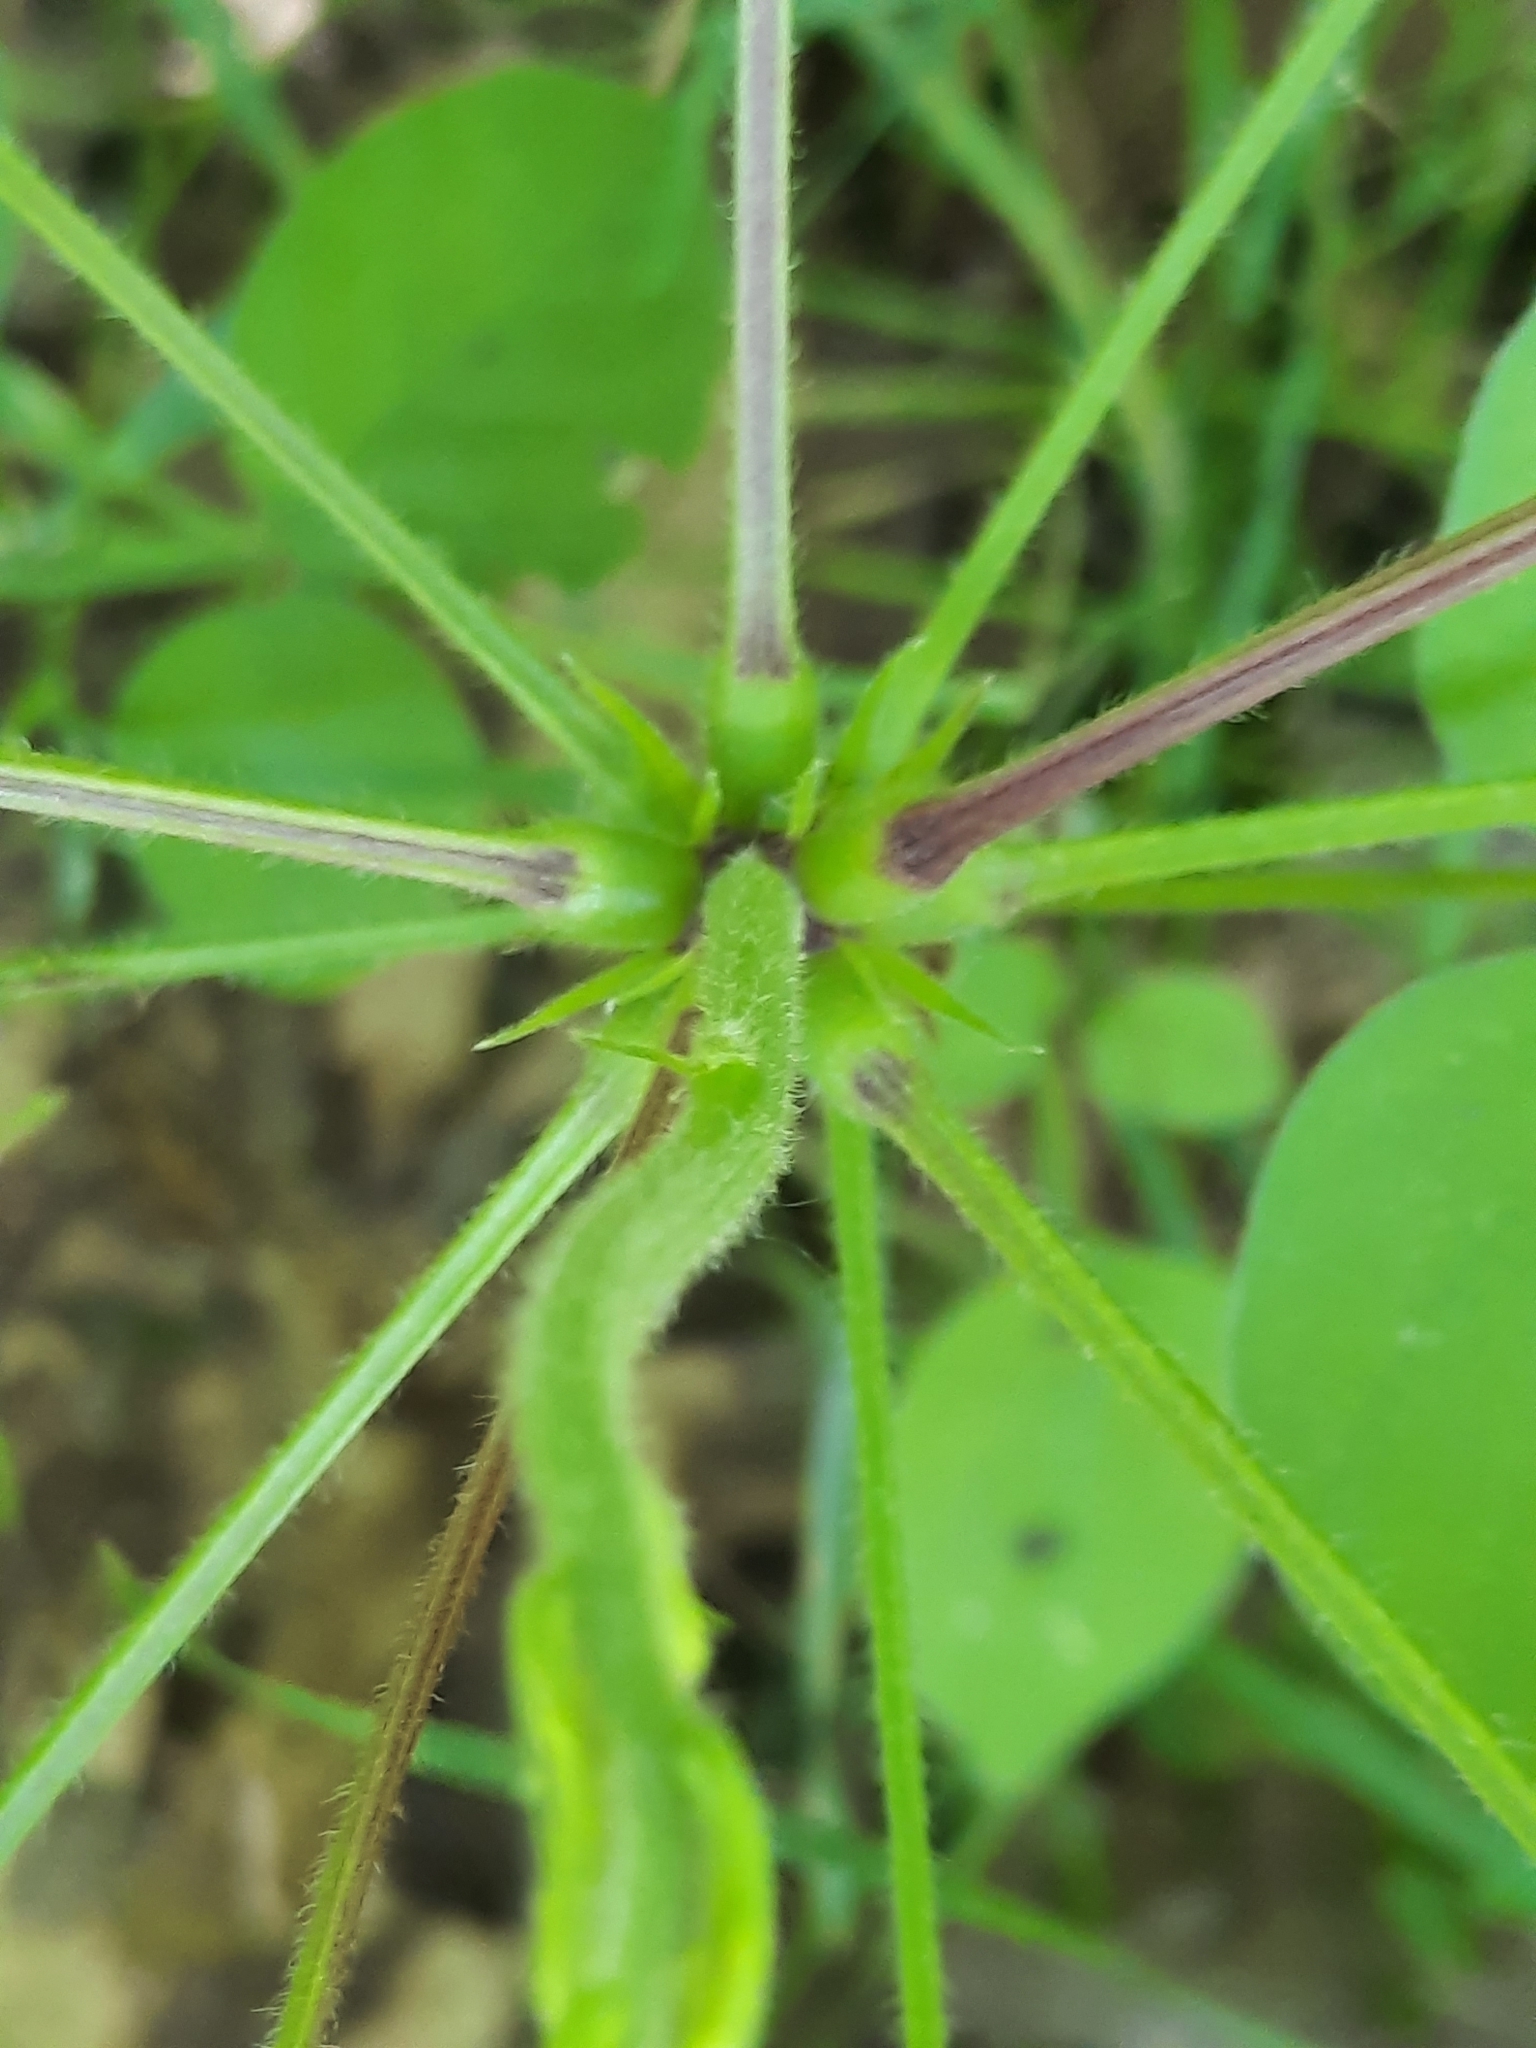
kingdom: Plantae
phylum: Tracheophyta
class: Magnoliopsida
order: Fabales
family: Fabaceae
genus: Hylodesmum
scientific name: Hylodesmum glutinosum
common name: Clustered-leaved tick-trefoil
